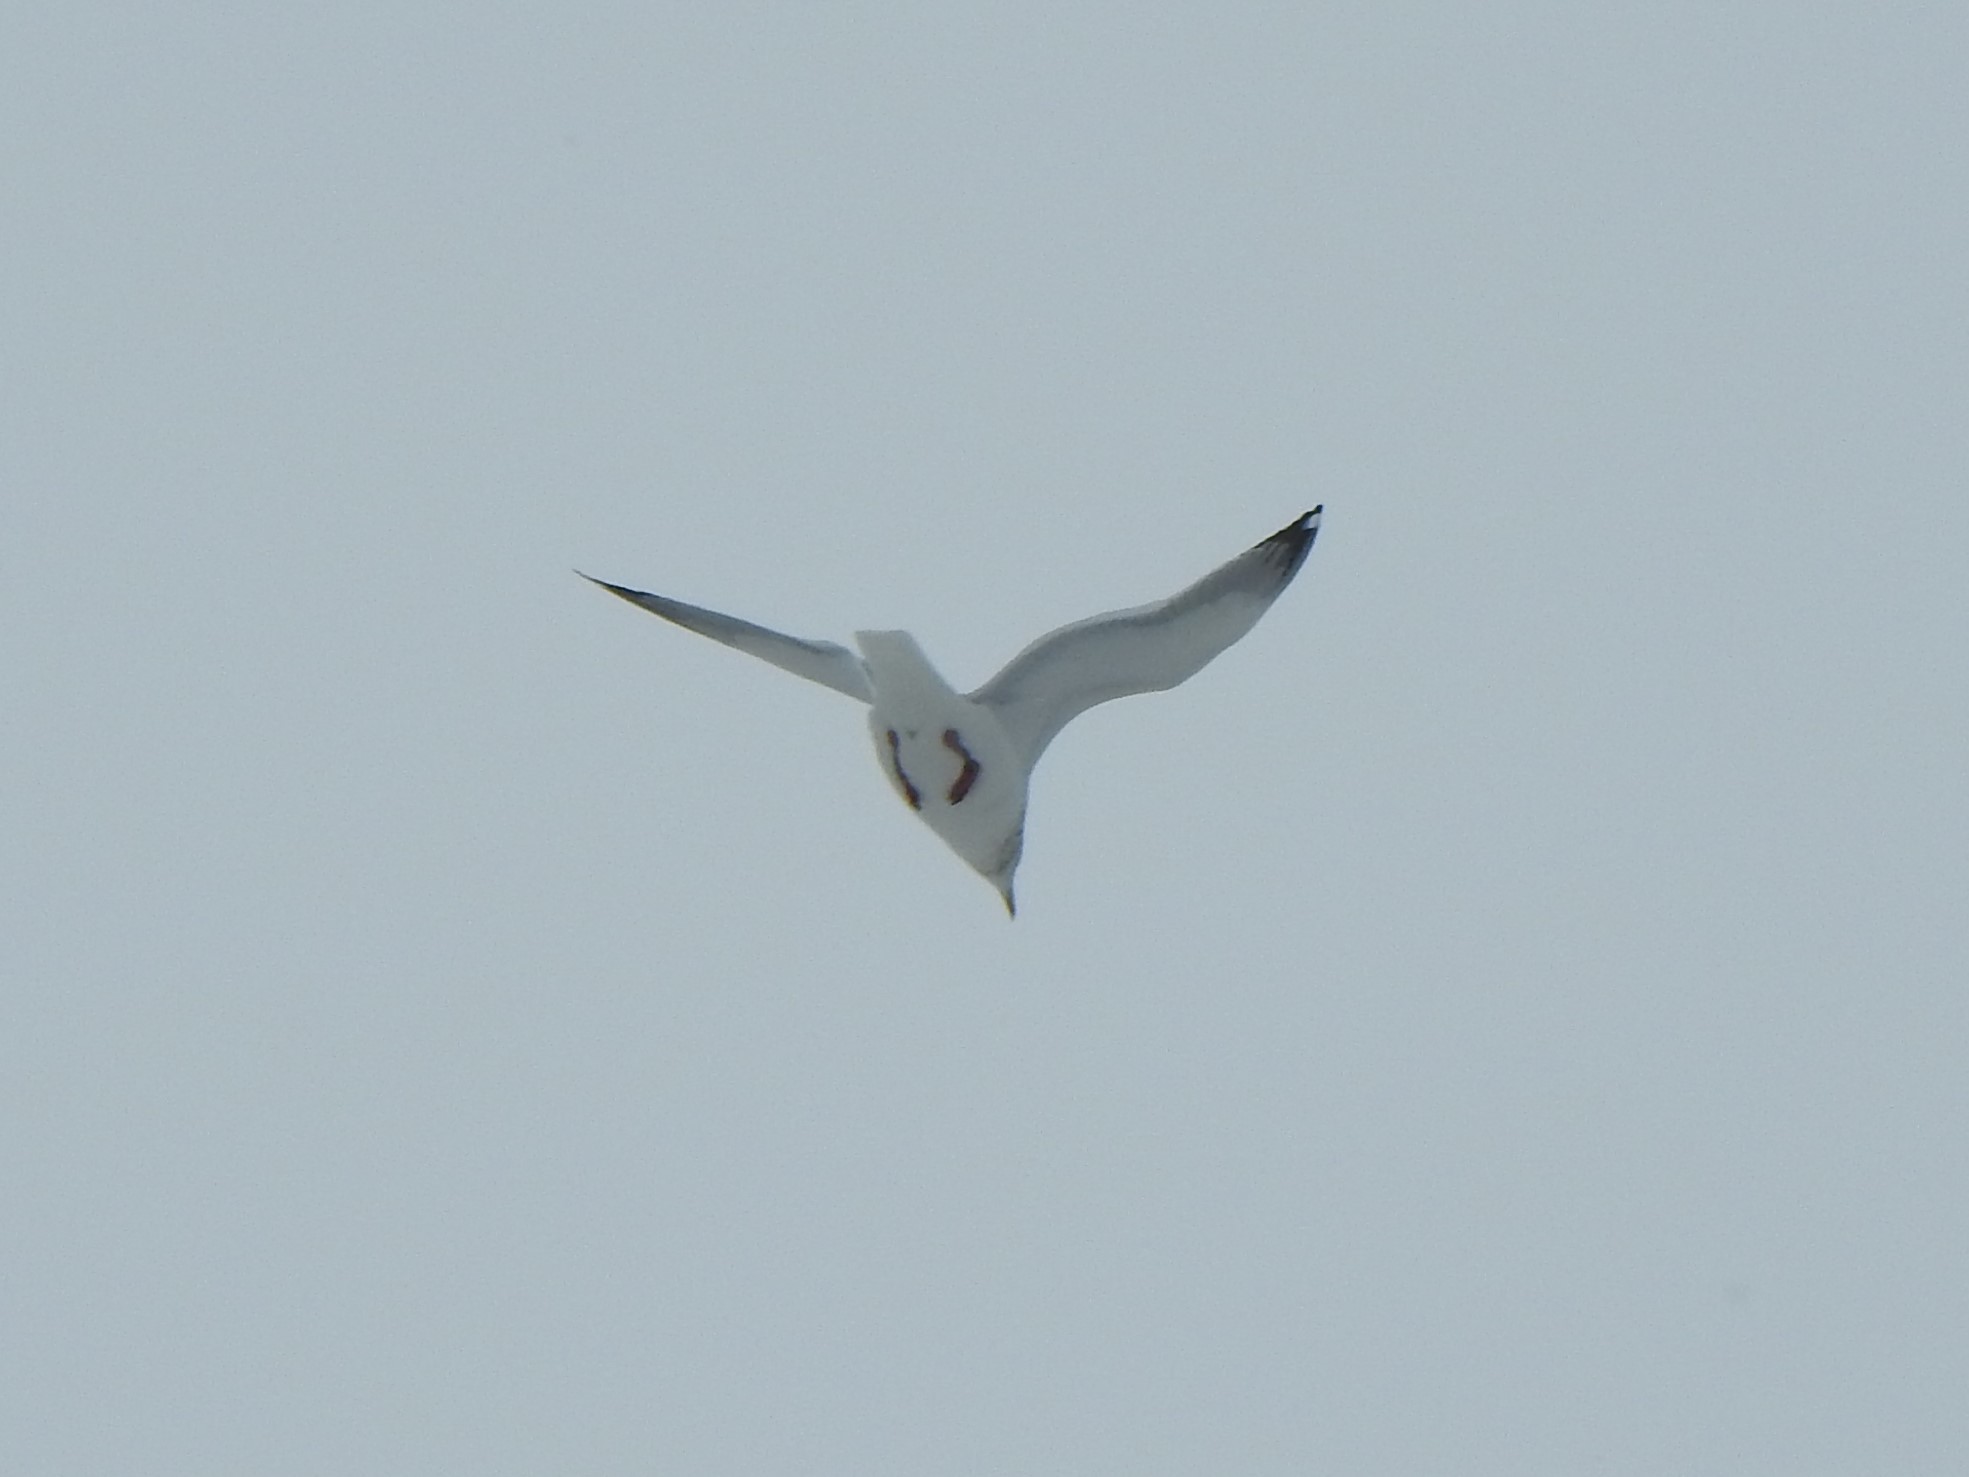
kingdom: Animalia
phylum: Chordata
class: Aves
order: Charadriiformes
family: Laridae
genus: Larus
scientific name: Larus argentatus
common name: Herring gull
